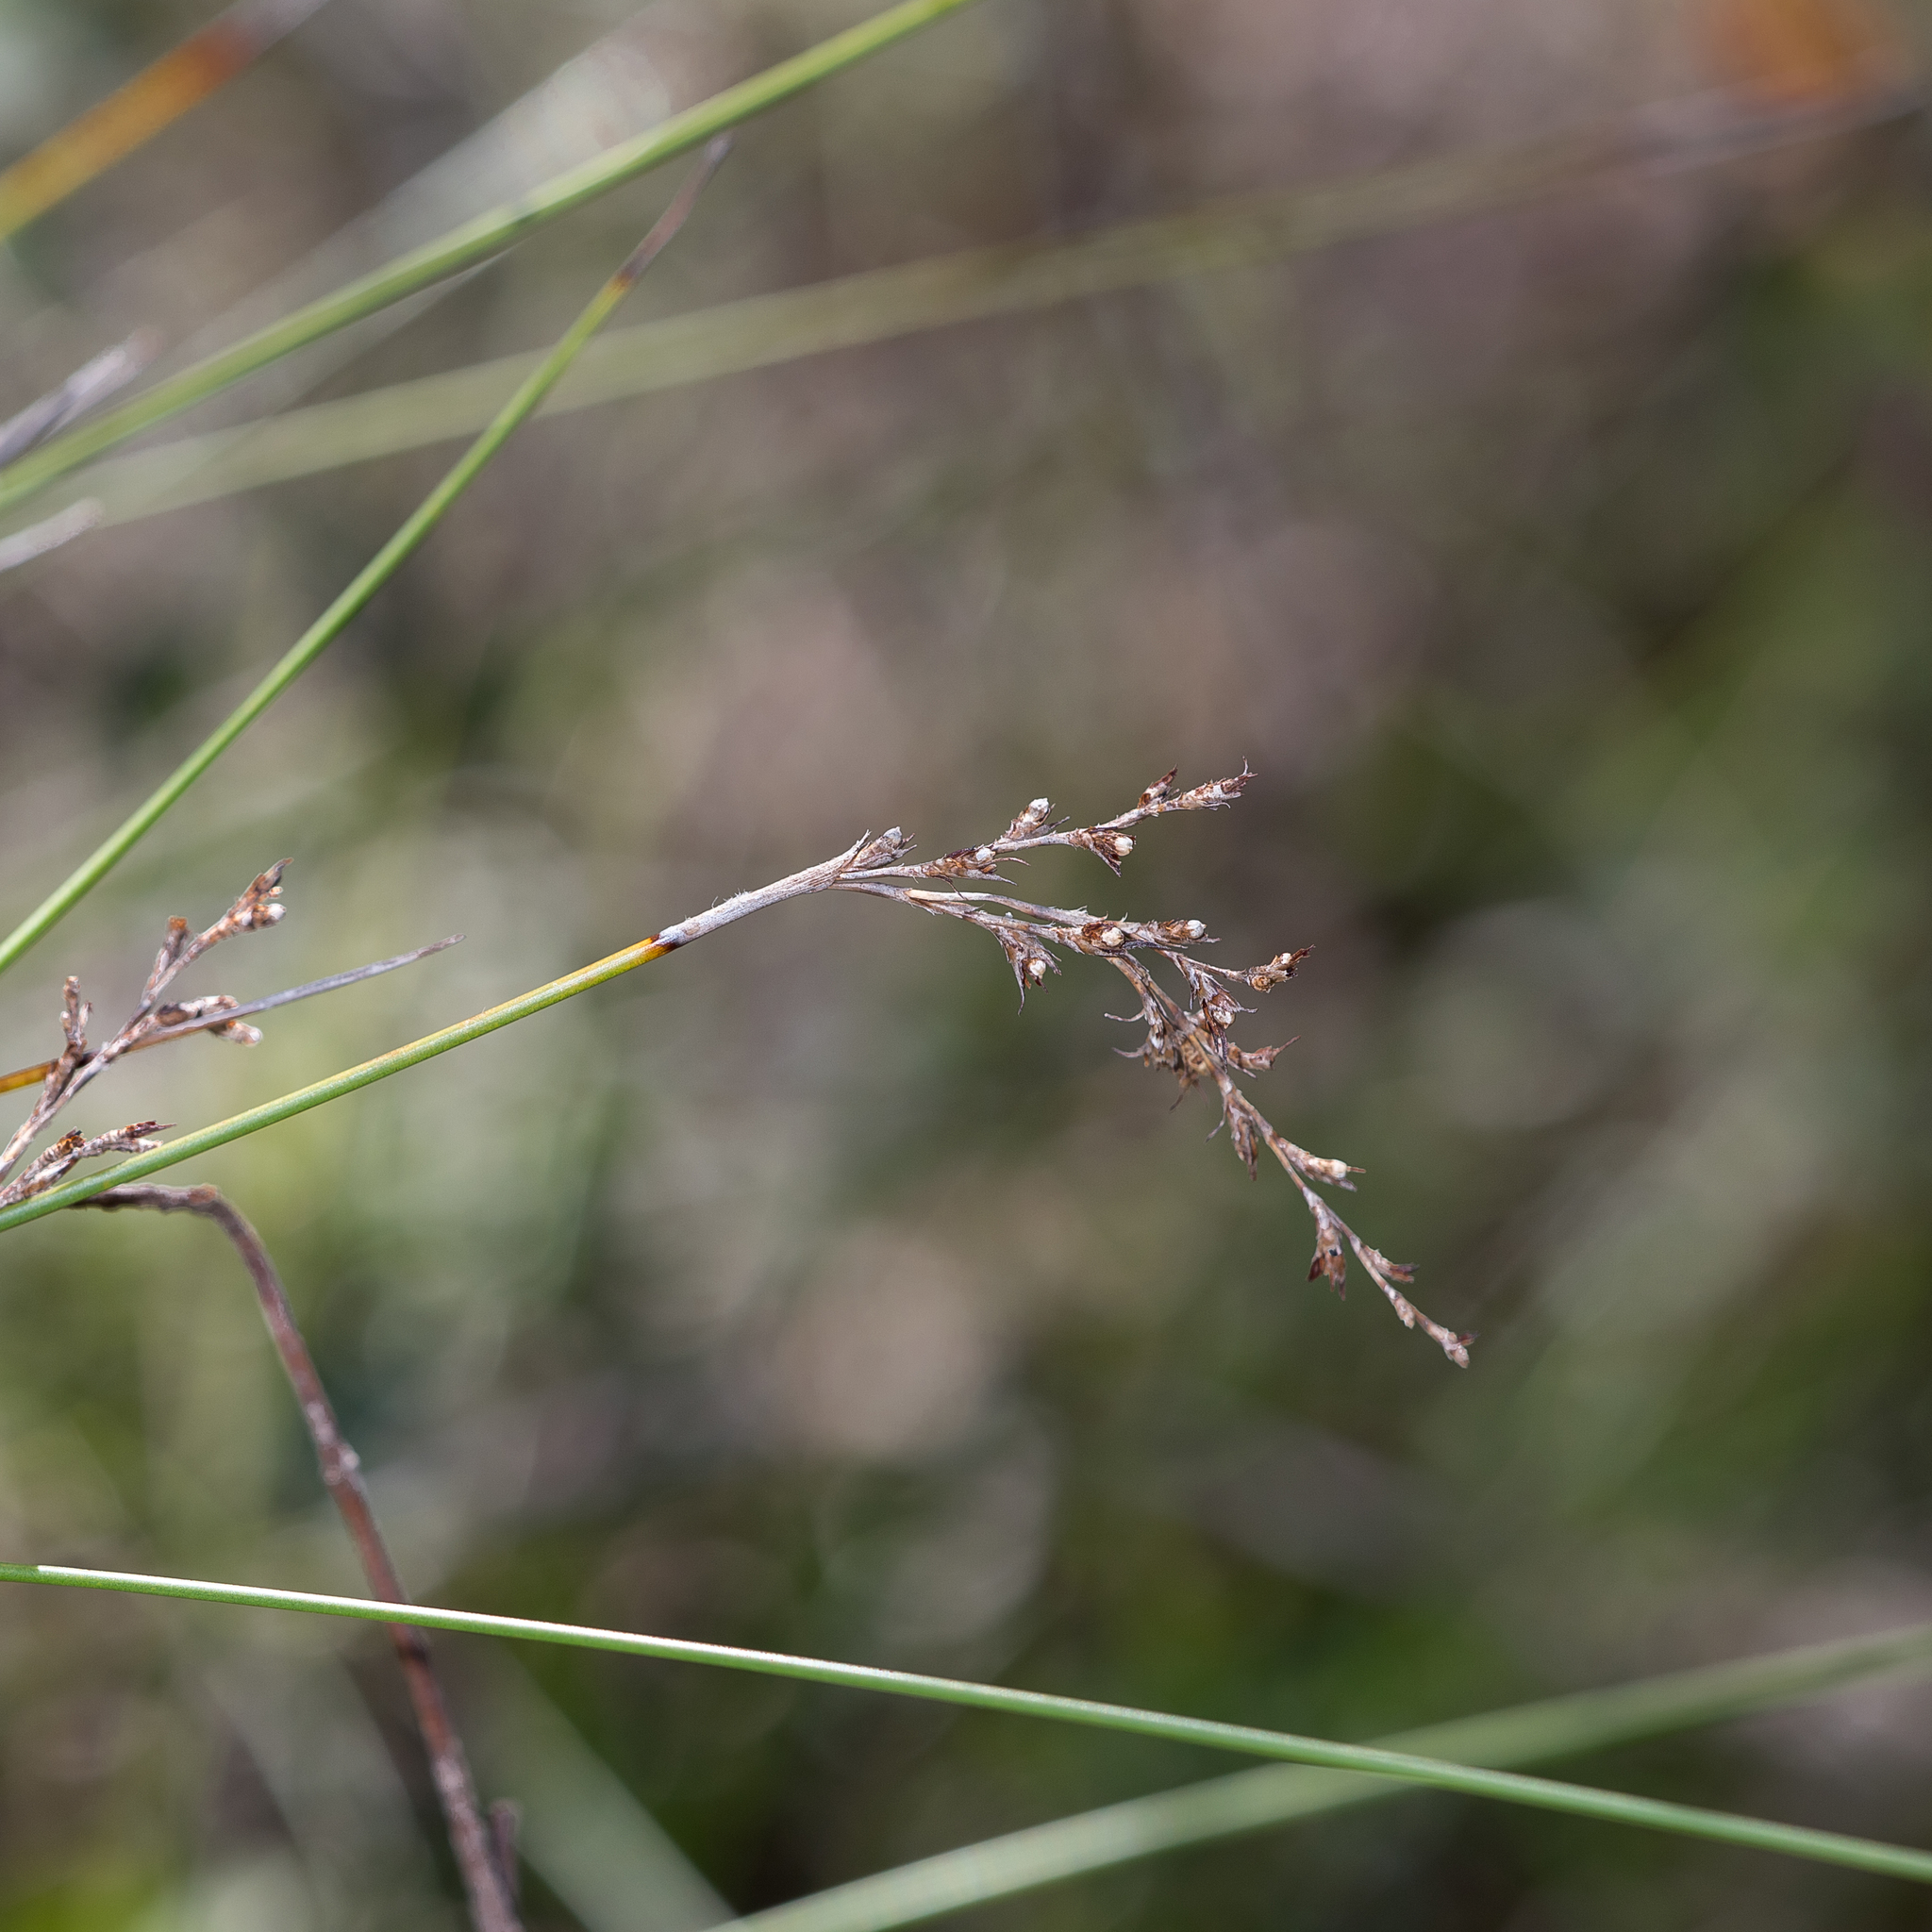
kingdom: Plantae
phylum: Tracheophyta
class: Liliopsida
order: Poales
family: Cyperaceae
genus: Lepidosperma
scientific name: Lepidosperma semiteres
